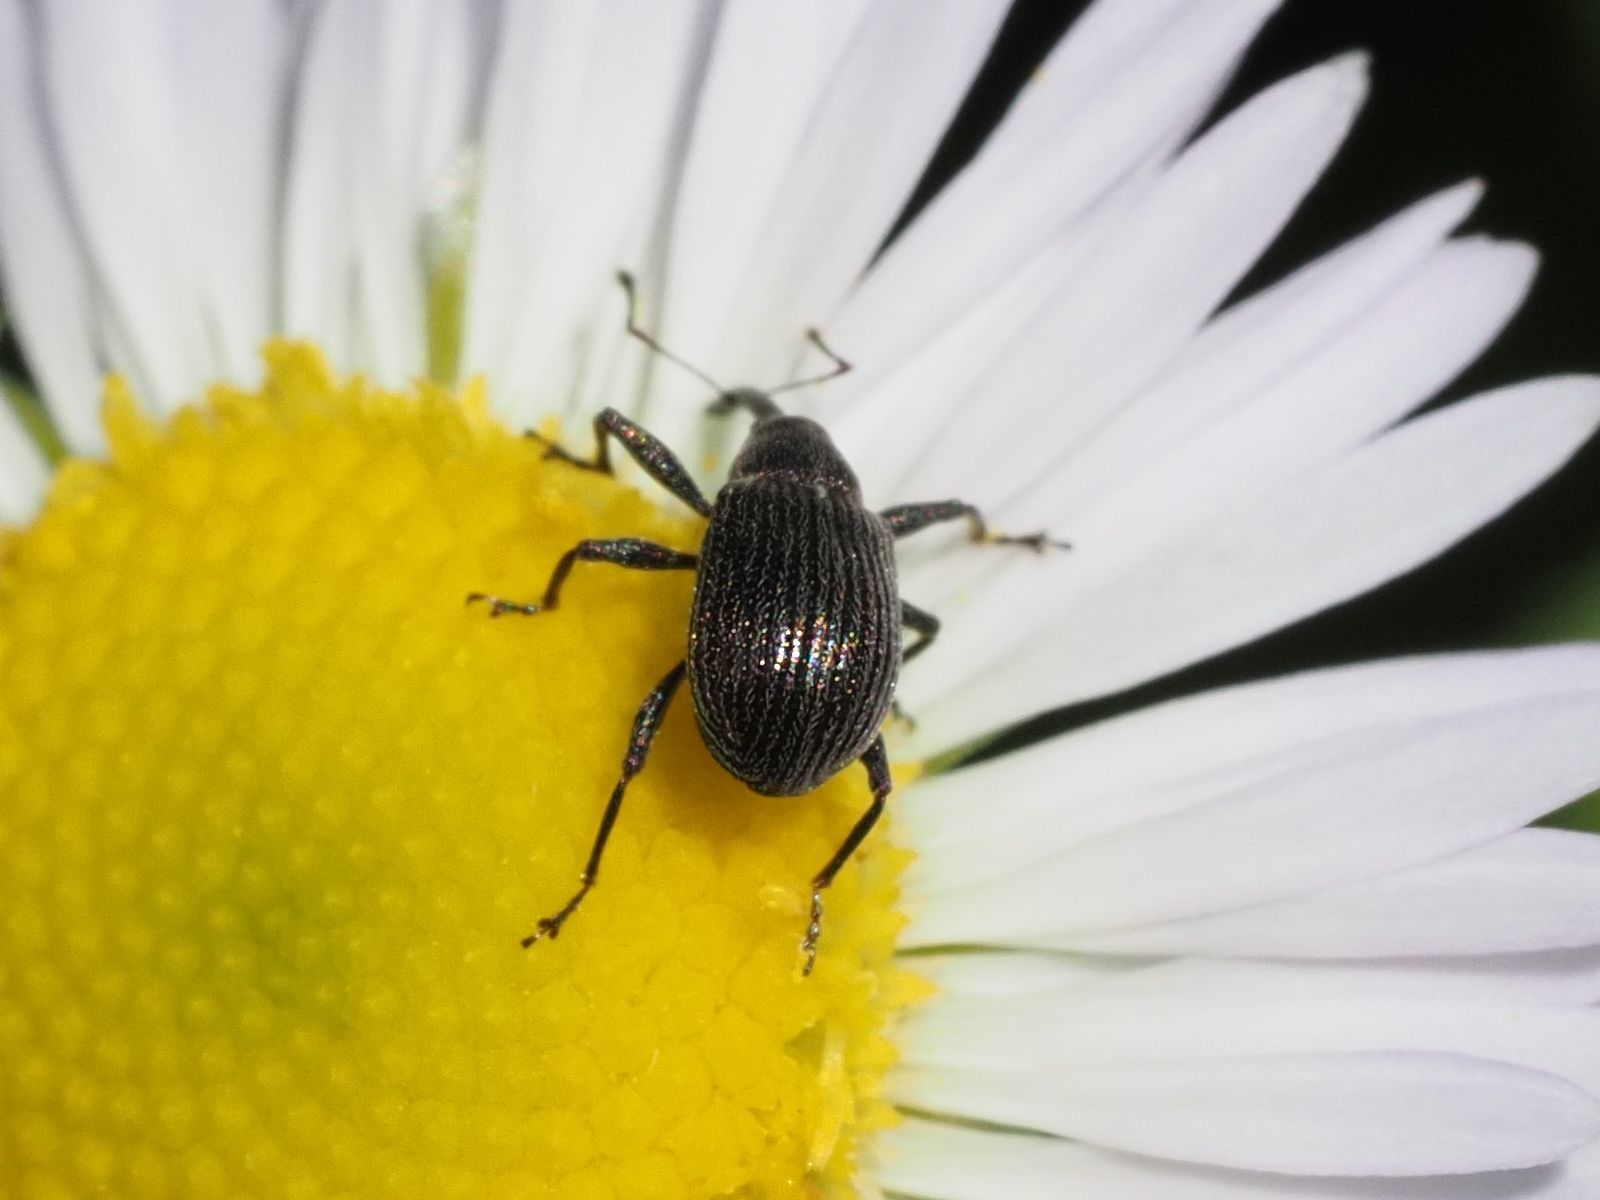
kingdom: Animalia
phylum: Arthropoda
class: Insecta
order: Coleoptera
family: Curculionidae
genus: Anthonomus
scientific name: Anthonomus rubi
